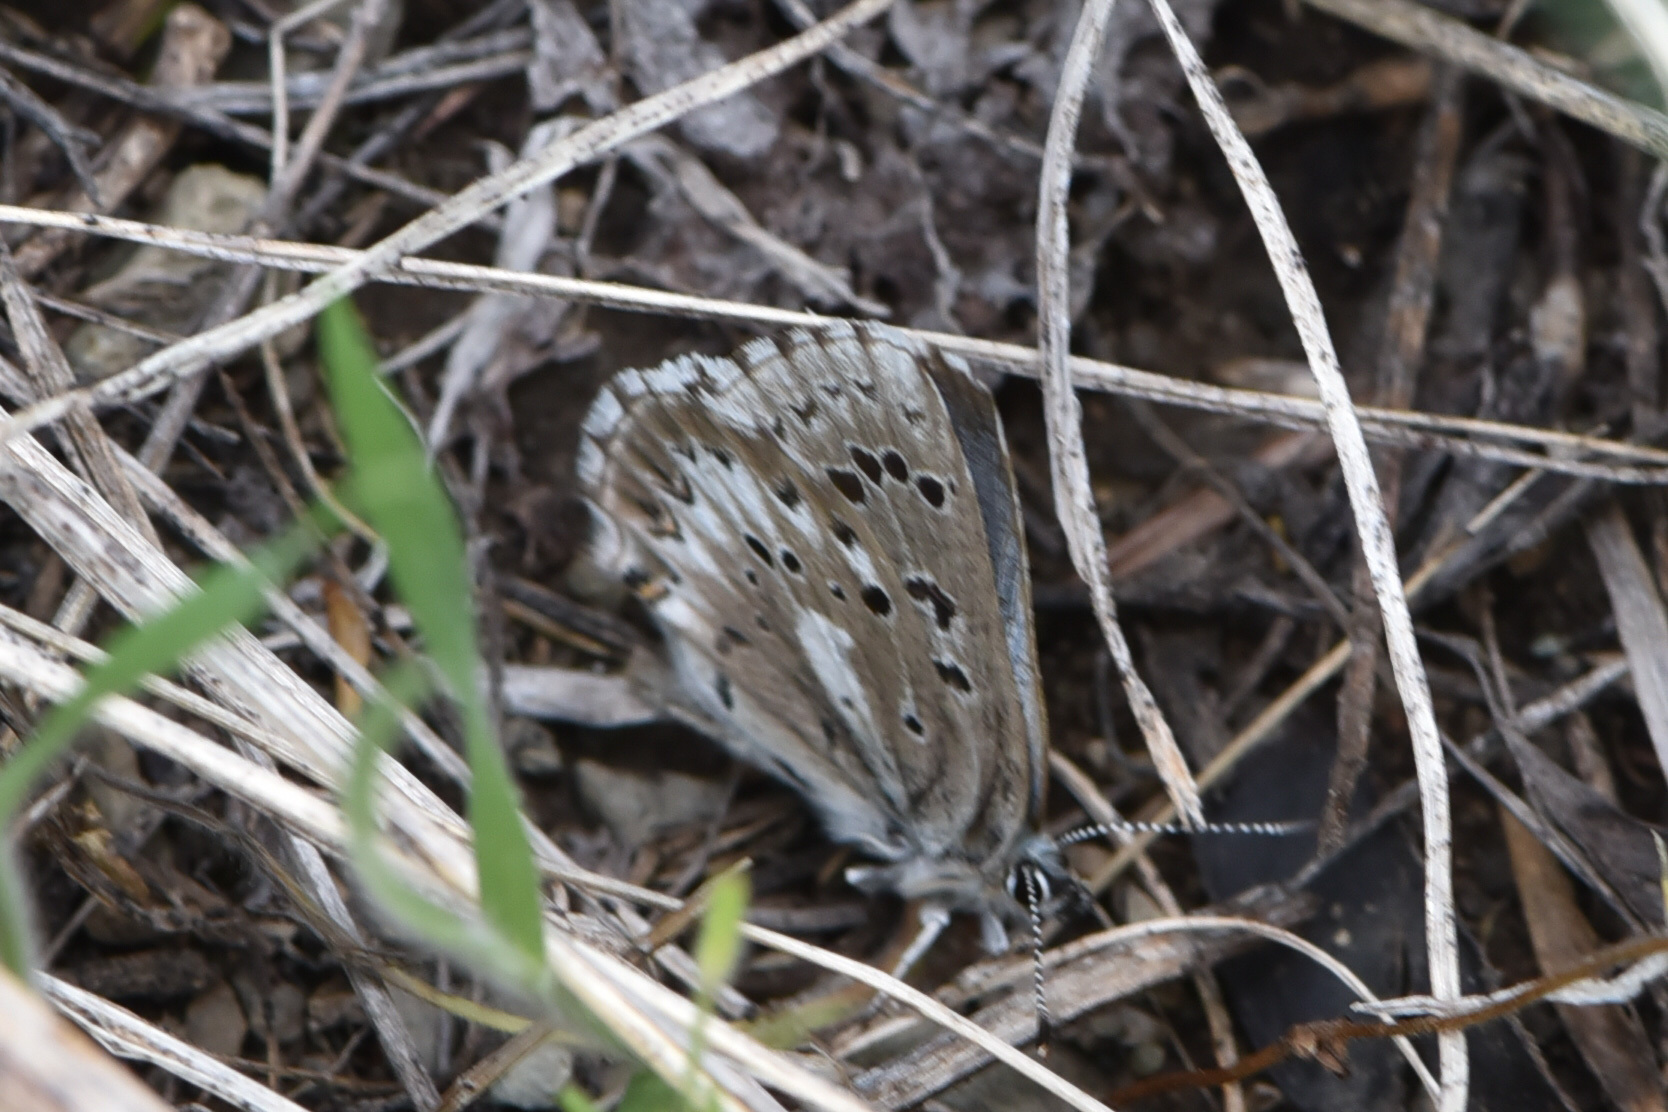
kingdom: Animalia
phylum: Arthropoda
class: Insecta
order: Lepidoptera
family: Lycaenidae
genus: Glaucopsyche
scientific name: Glaucopsyche piasus
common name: Arrowhead blue
